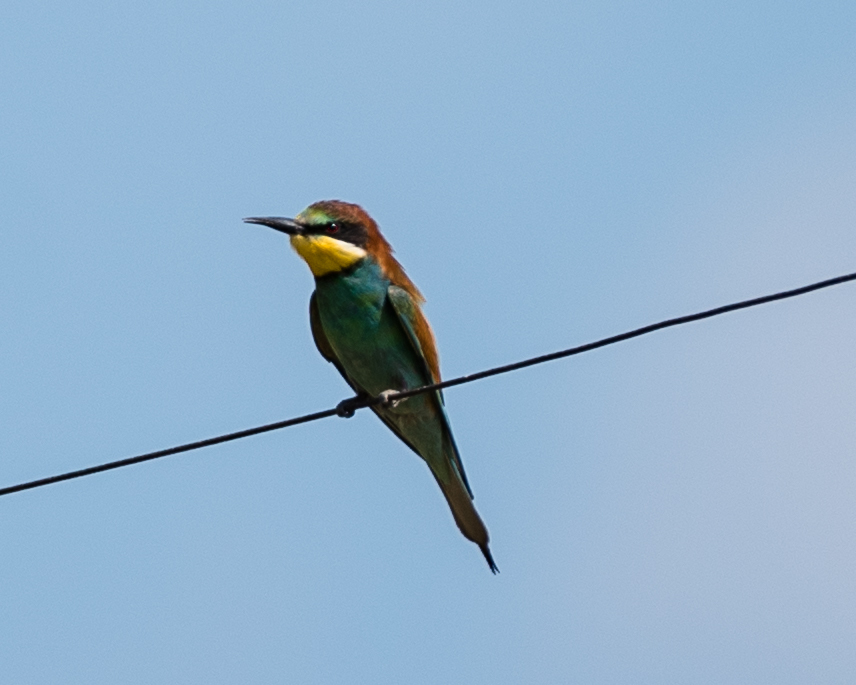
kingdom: Animalia
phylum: Chordata
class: Aves
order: Coraciiformes
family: Meropidae
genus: Merops
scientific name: Merops apiaster
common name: European bee-eater
